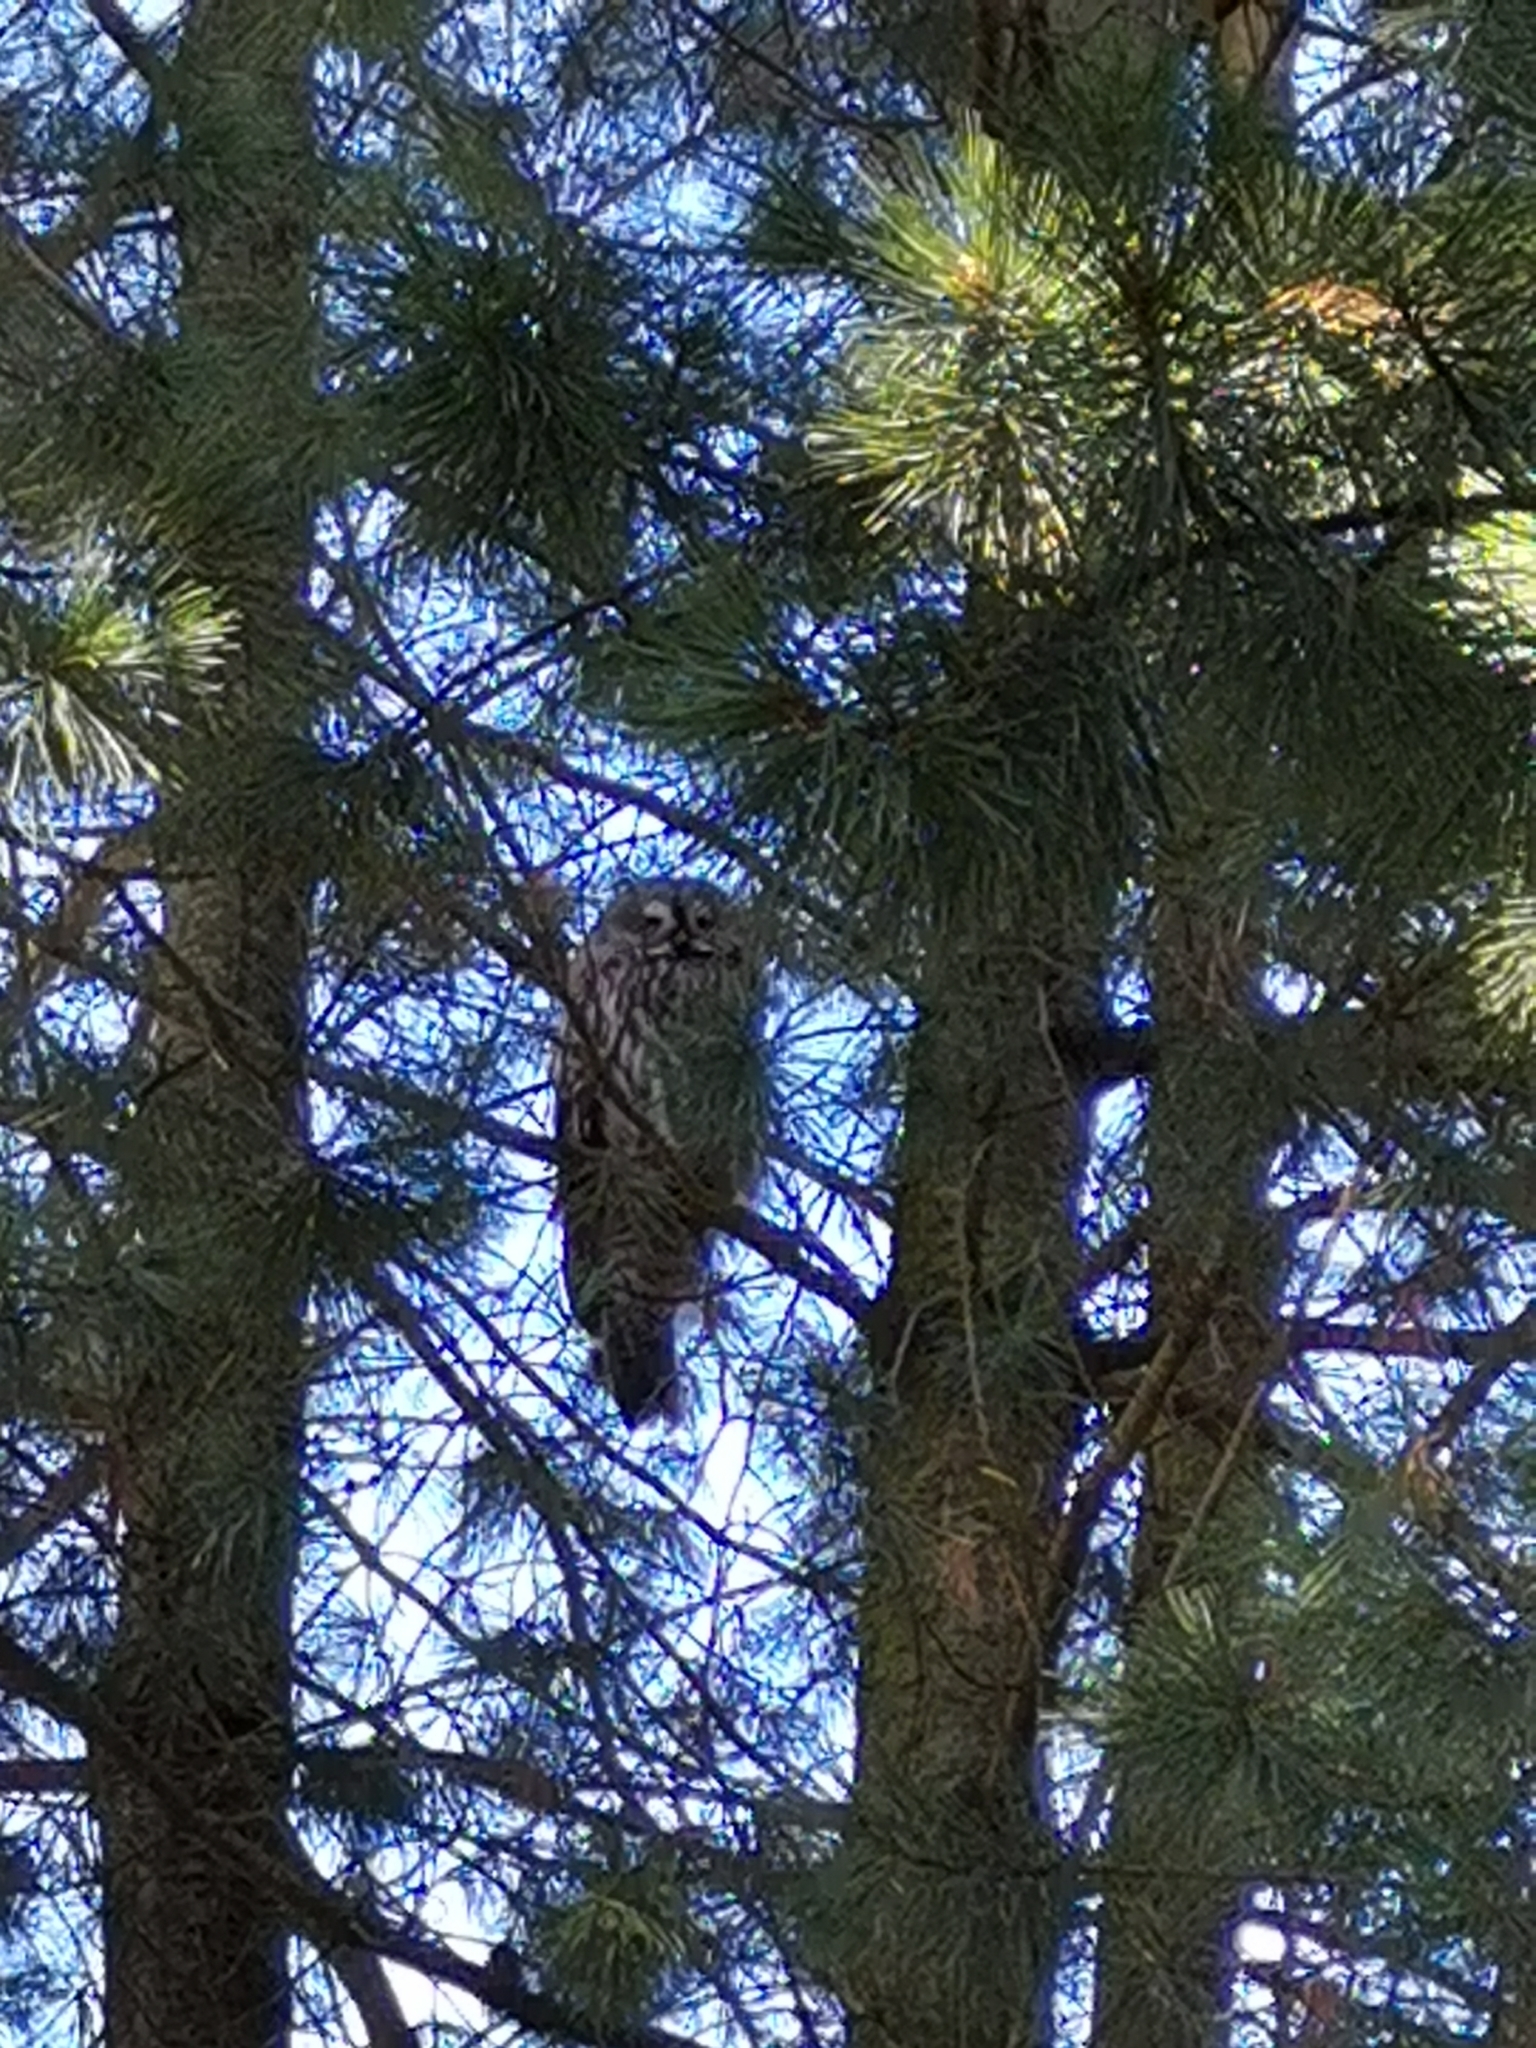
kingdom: Animalia
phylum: Chordata
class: Aves
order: Strigiformes
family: Strigidae
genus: Strix
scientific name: Strix nebulosa
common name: Great grey owl
